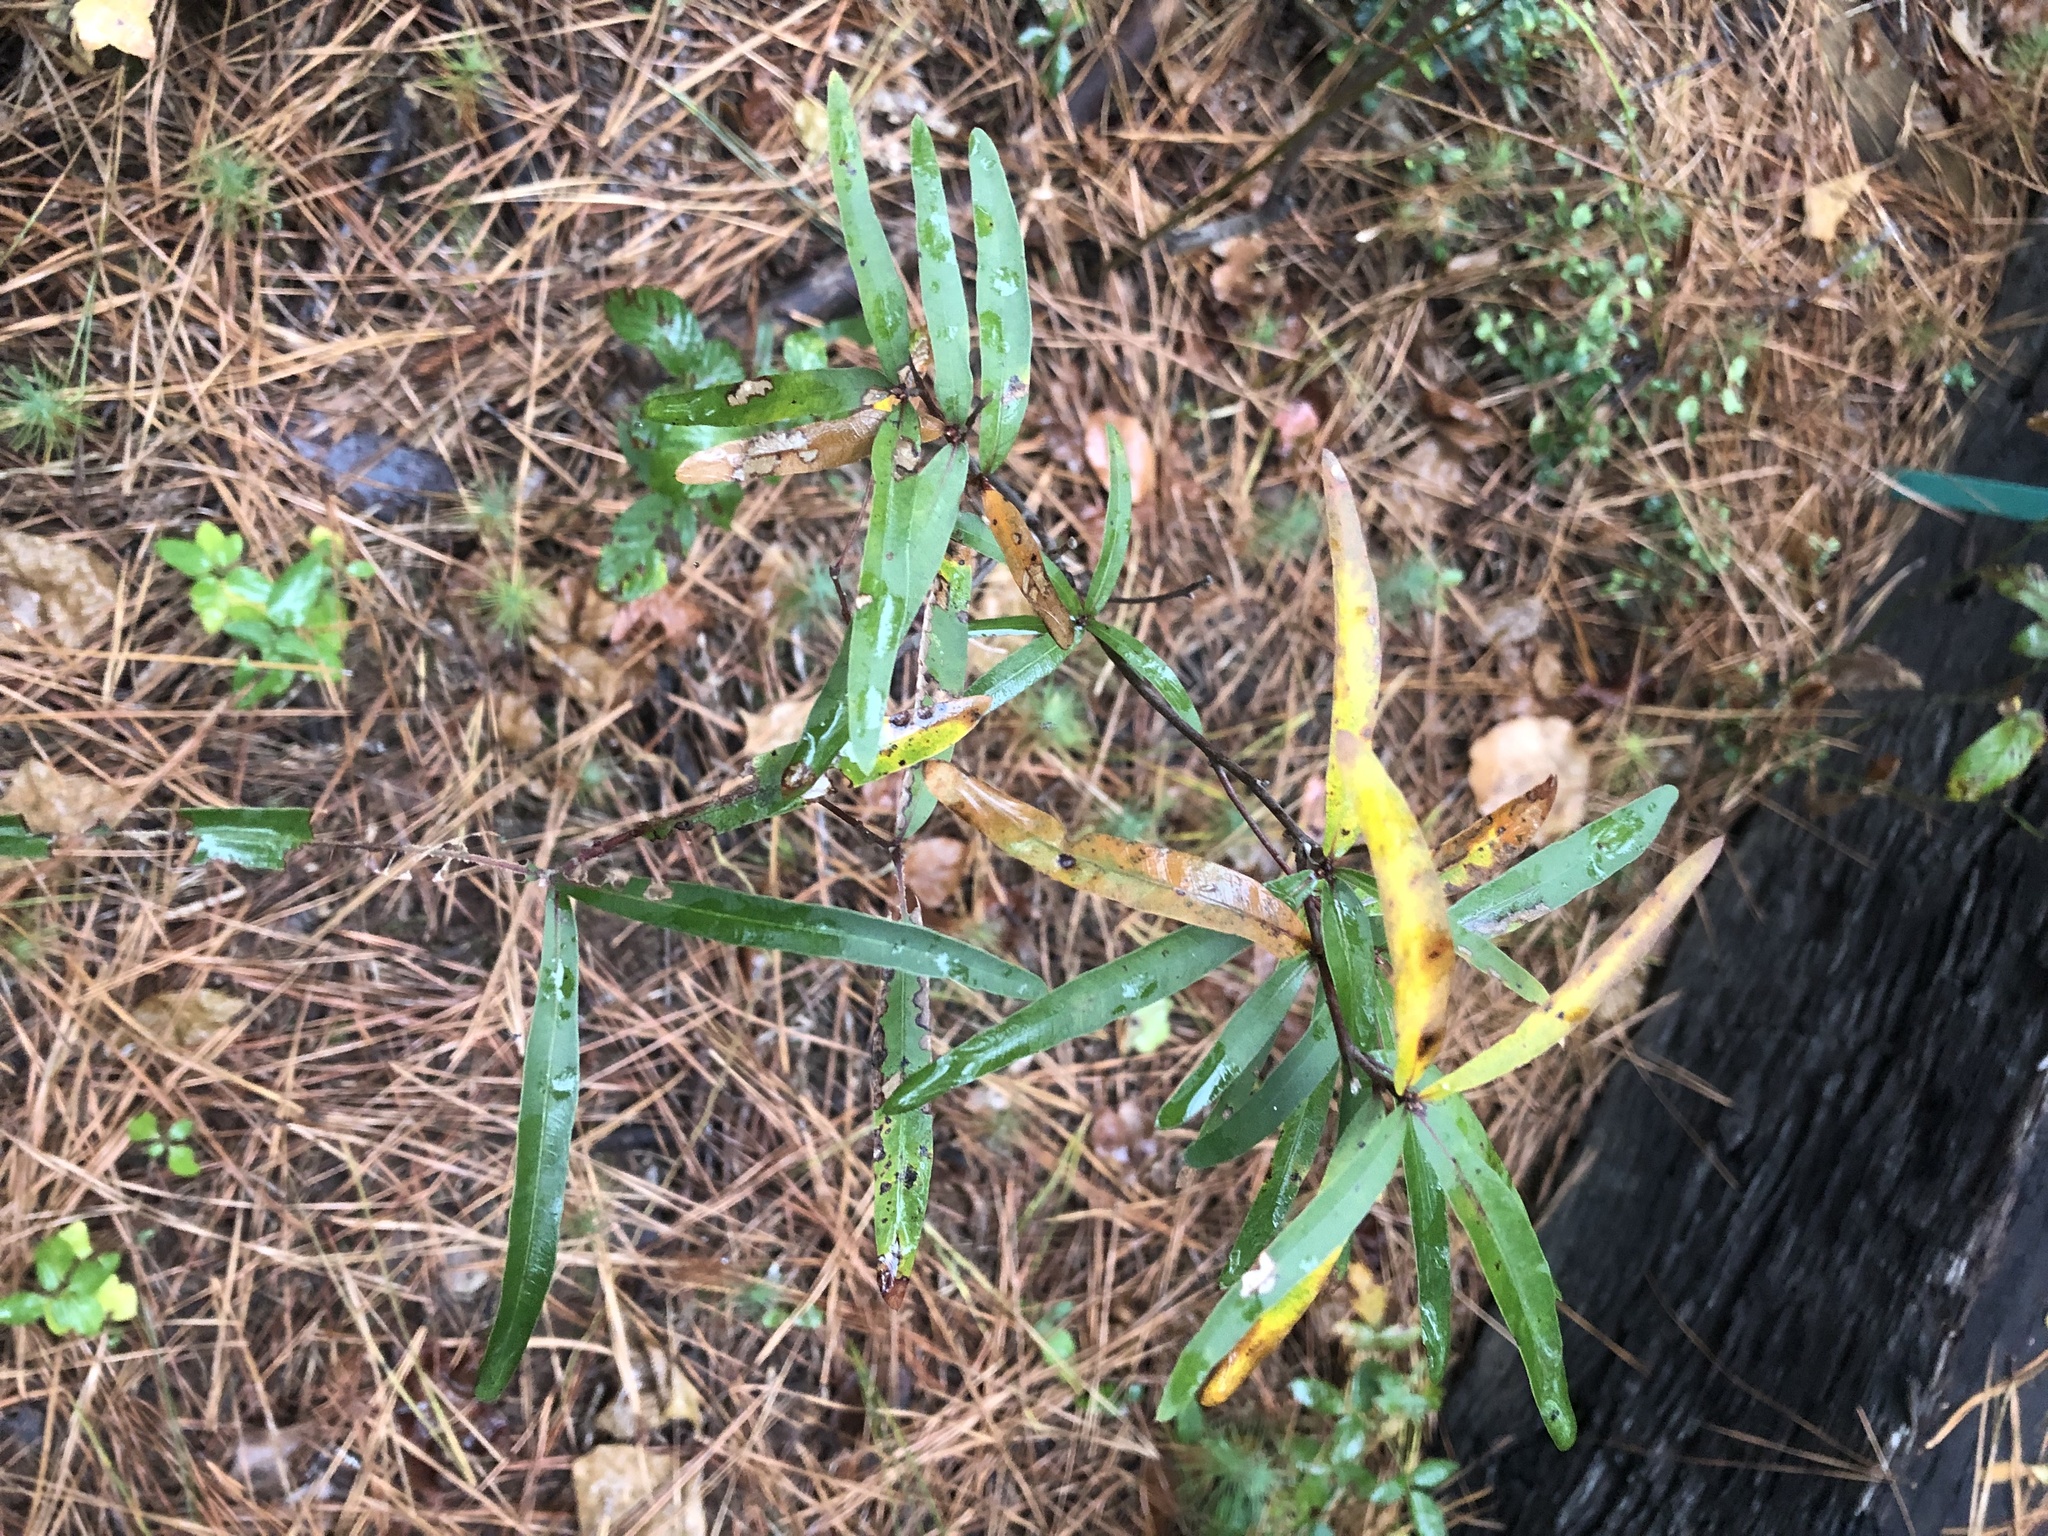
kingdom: Plantae
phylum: Tracheophyta
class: Magnoliopsida
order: Fagales
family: Fagaceae
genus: Quercus
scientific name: Quercus phellos
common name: Willow oak
